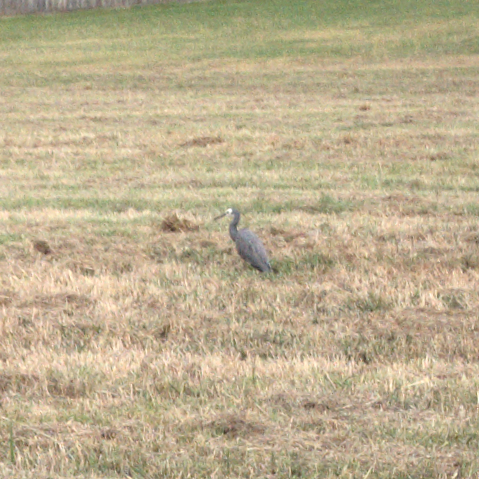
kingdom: Animalia
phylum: Chordata
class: Aves
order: Pelecaniformes
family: Ardeidae
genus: Egretta
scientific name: Egretta novaehollandiae
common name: White-faced heron
